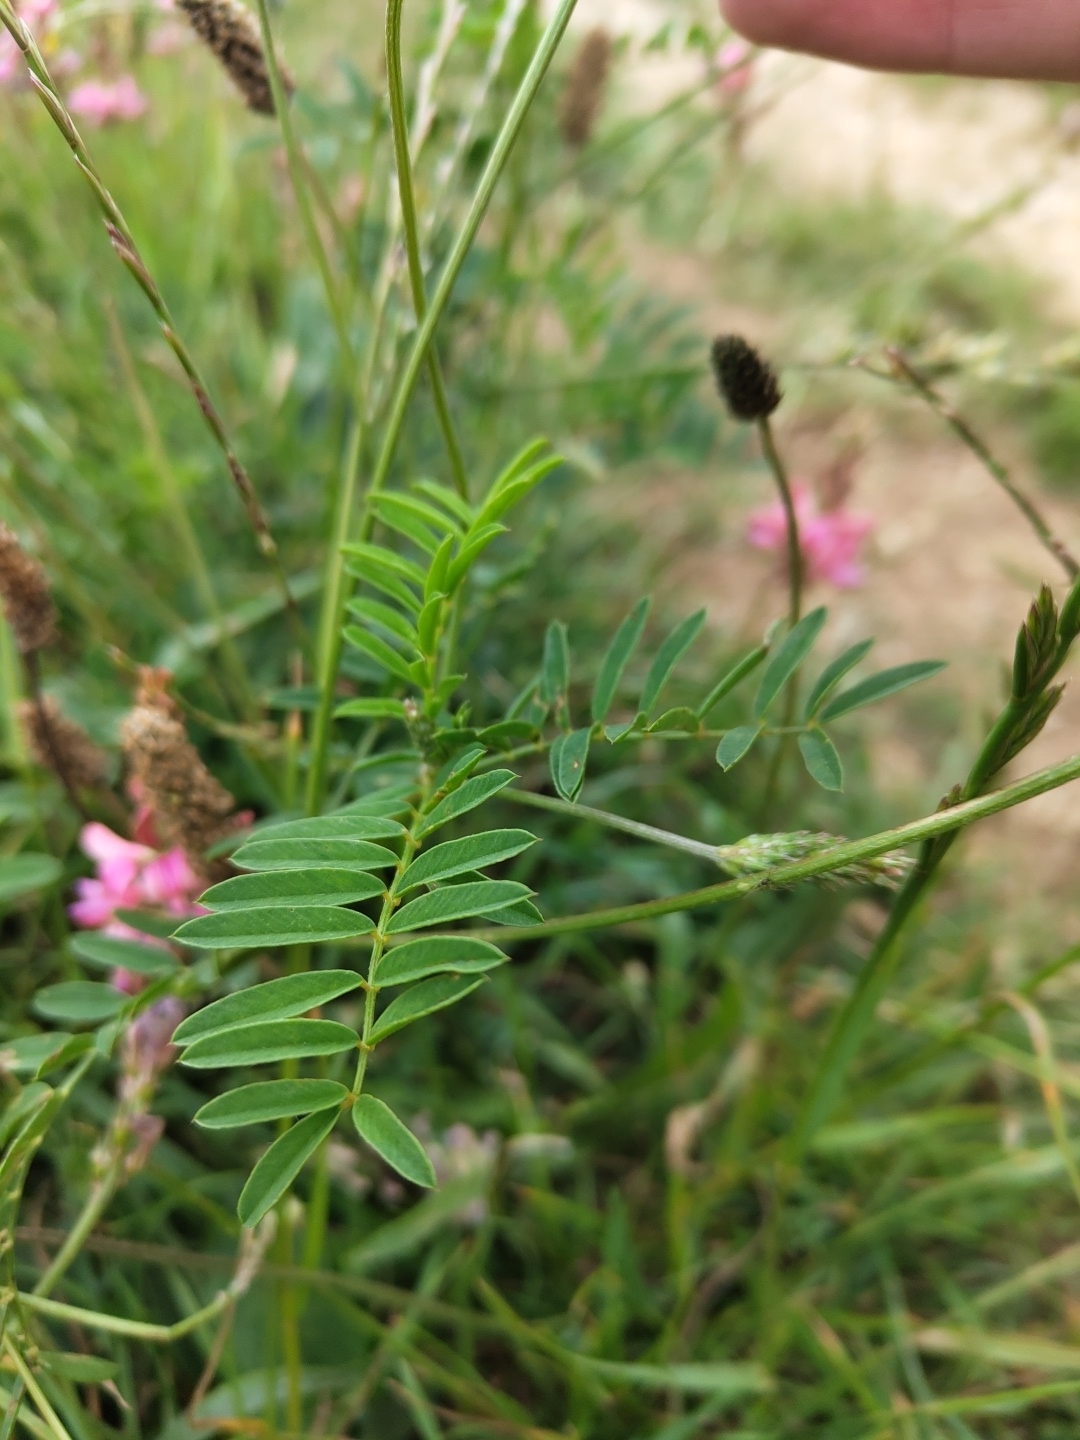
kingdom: Plantae
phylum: Tracheophyta
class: Magnoliopsida
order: Fabales
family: Fabaceae
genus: Onobrychis
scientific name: Onobrychis viciifolia
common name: Sainfoin
